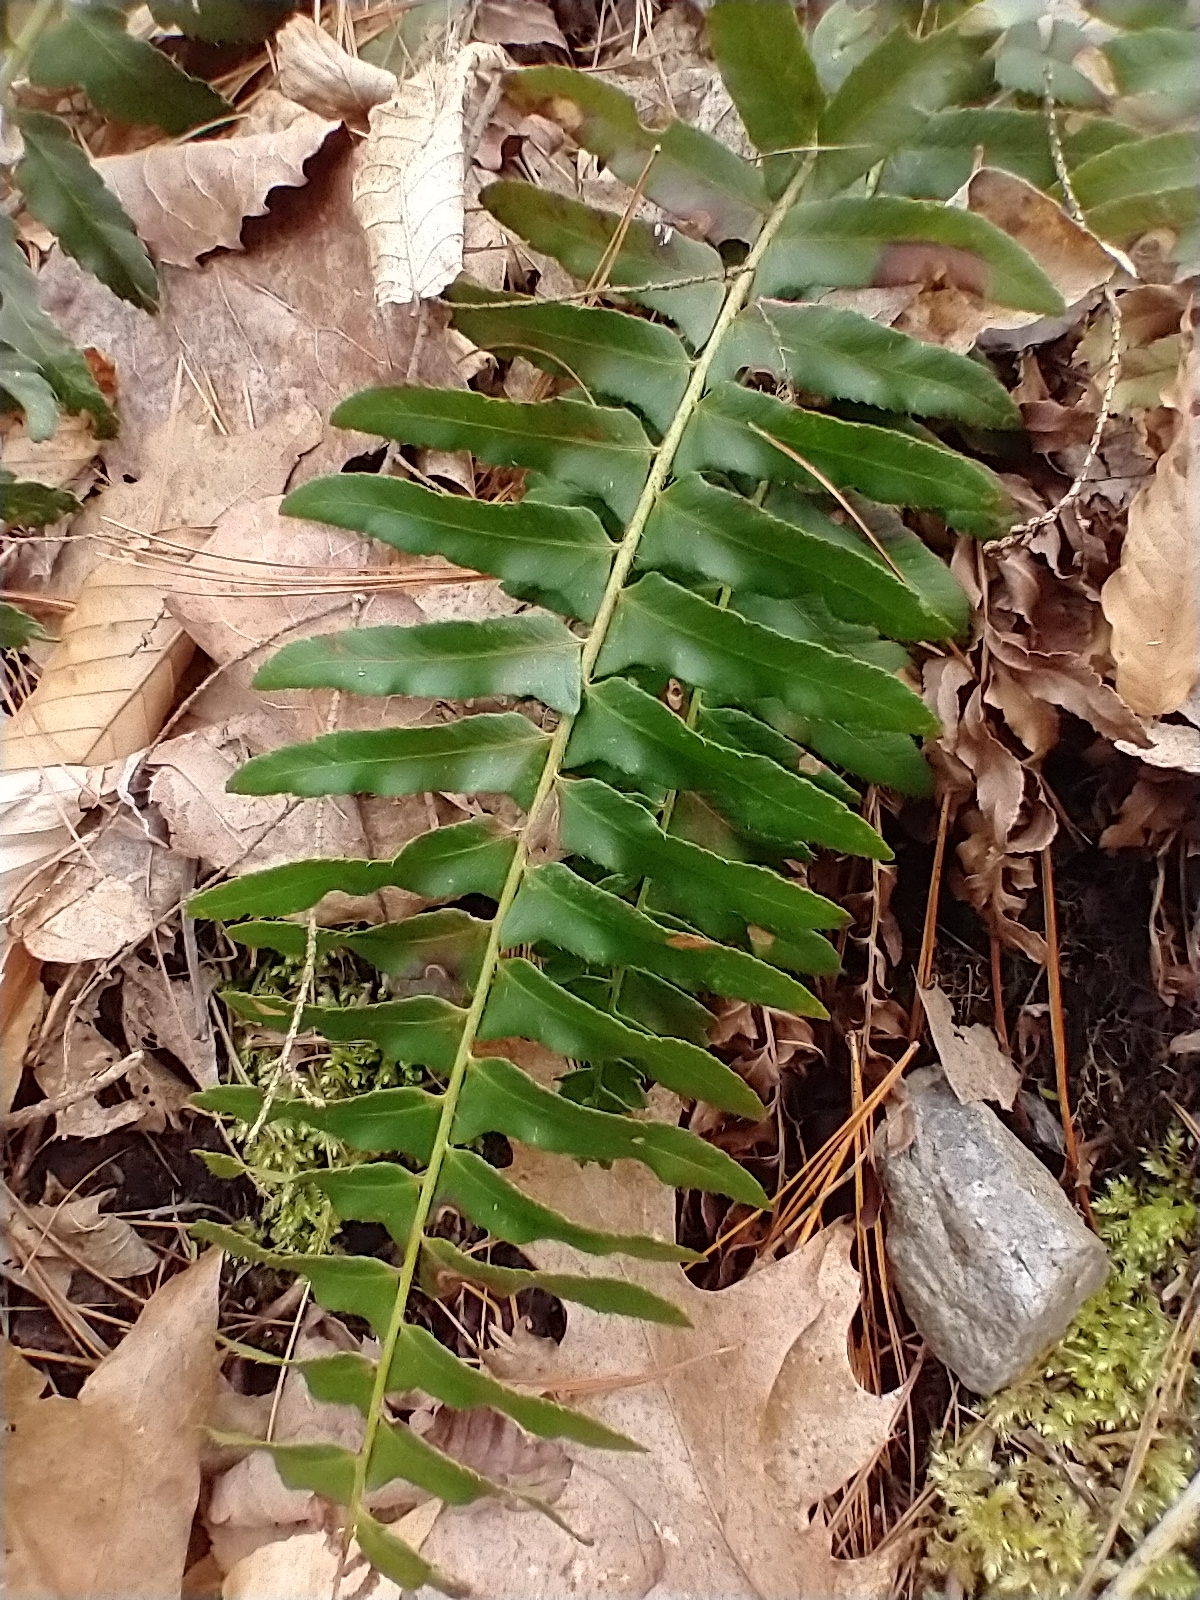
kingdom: Plantae
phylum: Tracheophyta
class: Polypodiopsida
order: Polypodiales
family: Dryopteridaceae
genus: Polystichum
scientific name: Polystichum acrostichoides
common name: Christmas fern
